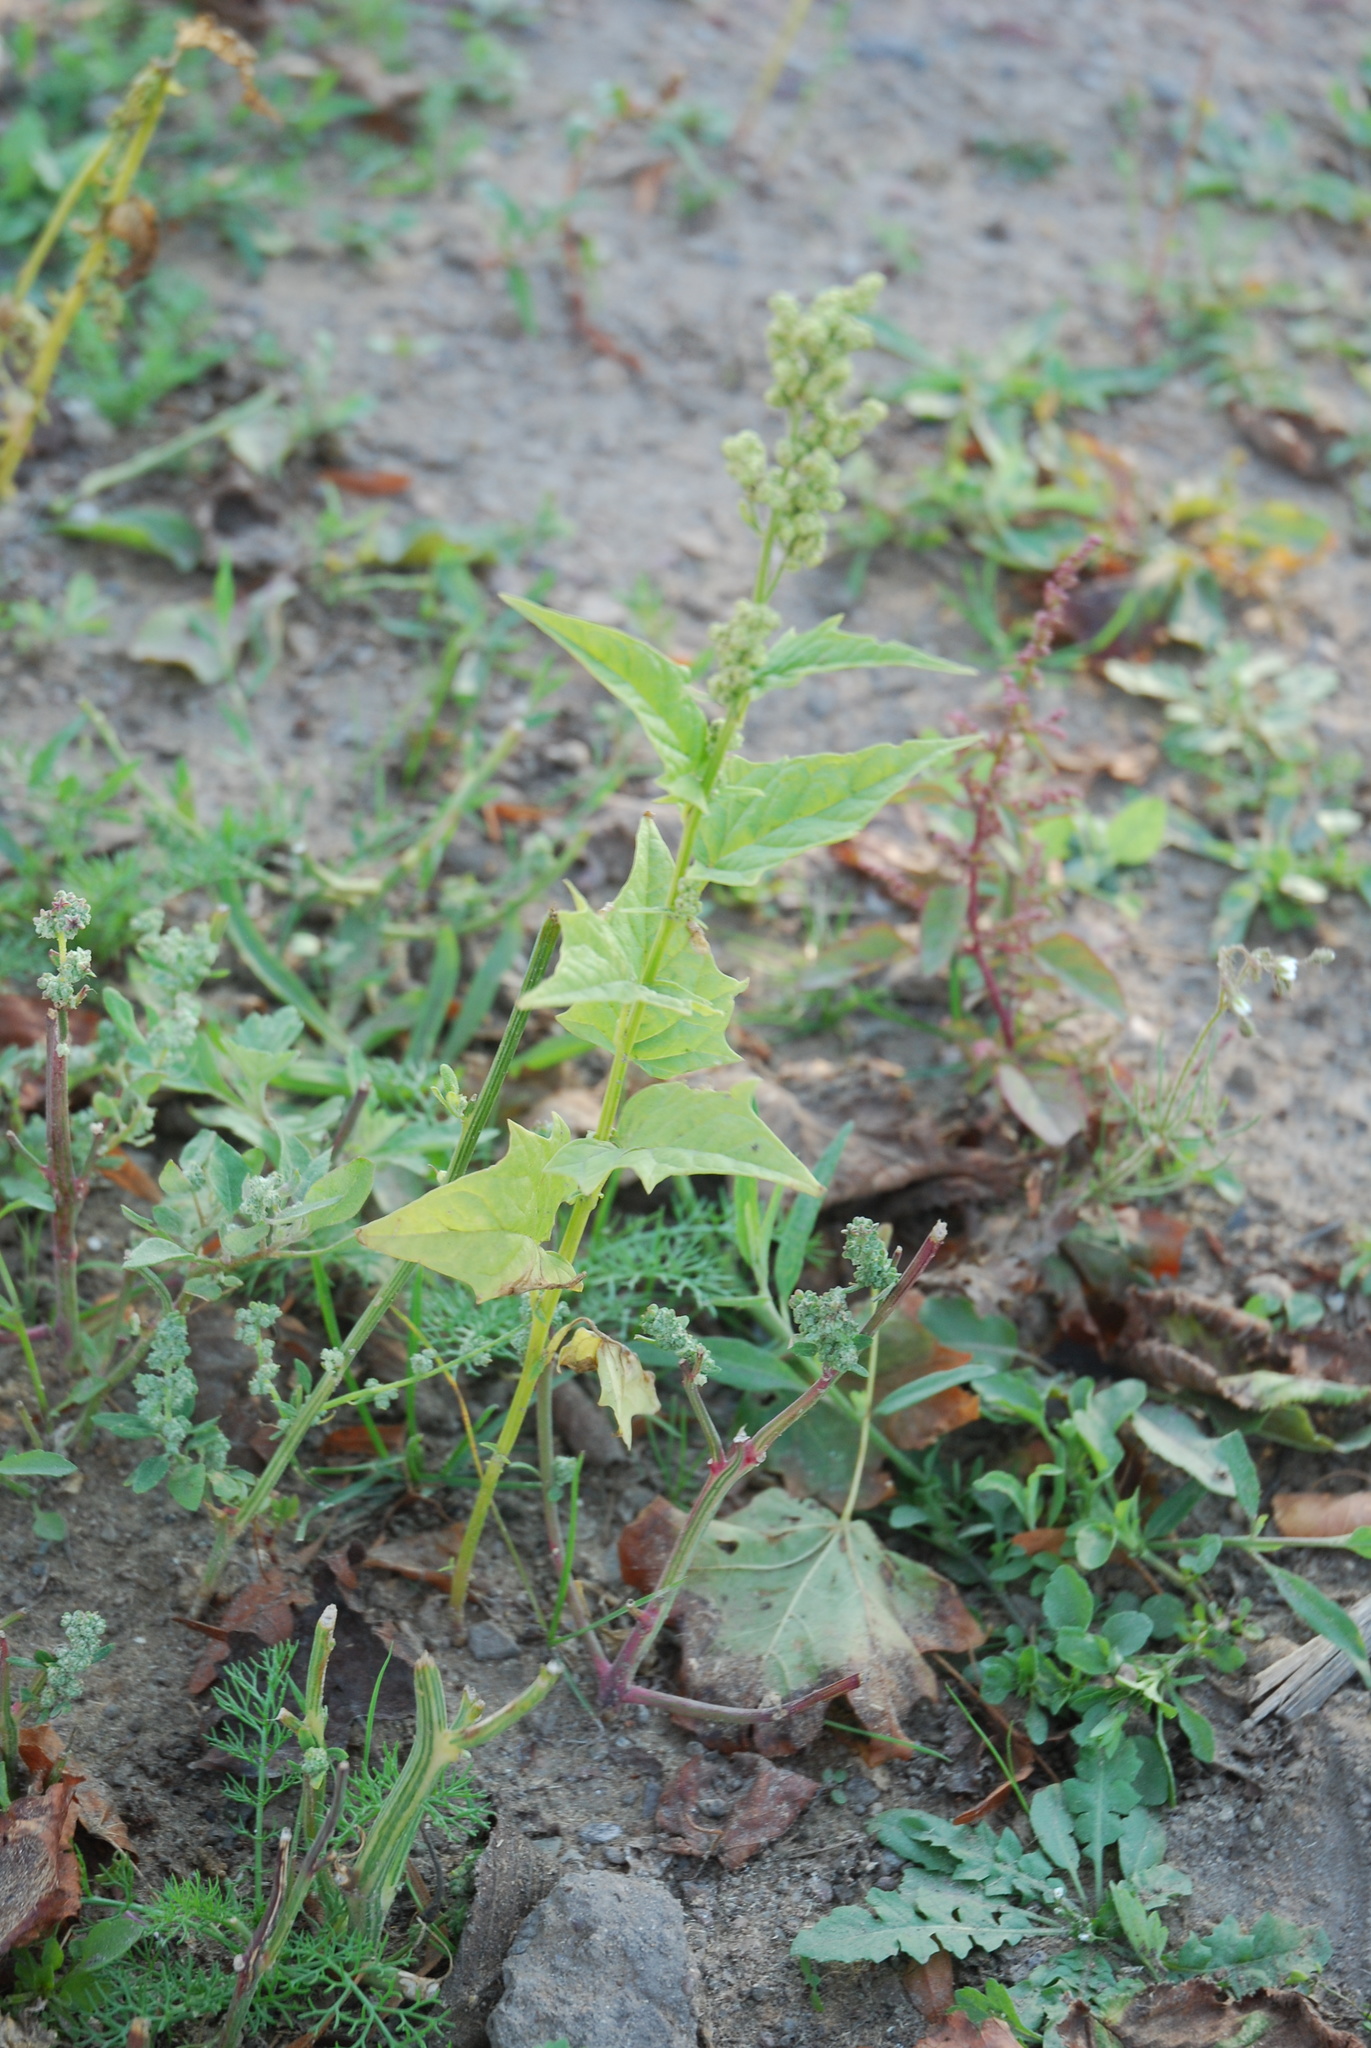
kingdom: Plantae
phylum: Tracheophyta
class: Magnoliopsida
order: Caryophyllales
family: Amaranthaceae
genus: Chenopodiastrum
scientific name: Chenopodiastrum hybridum
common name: Mapleleaf goosefoot
